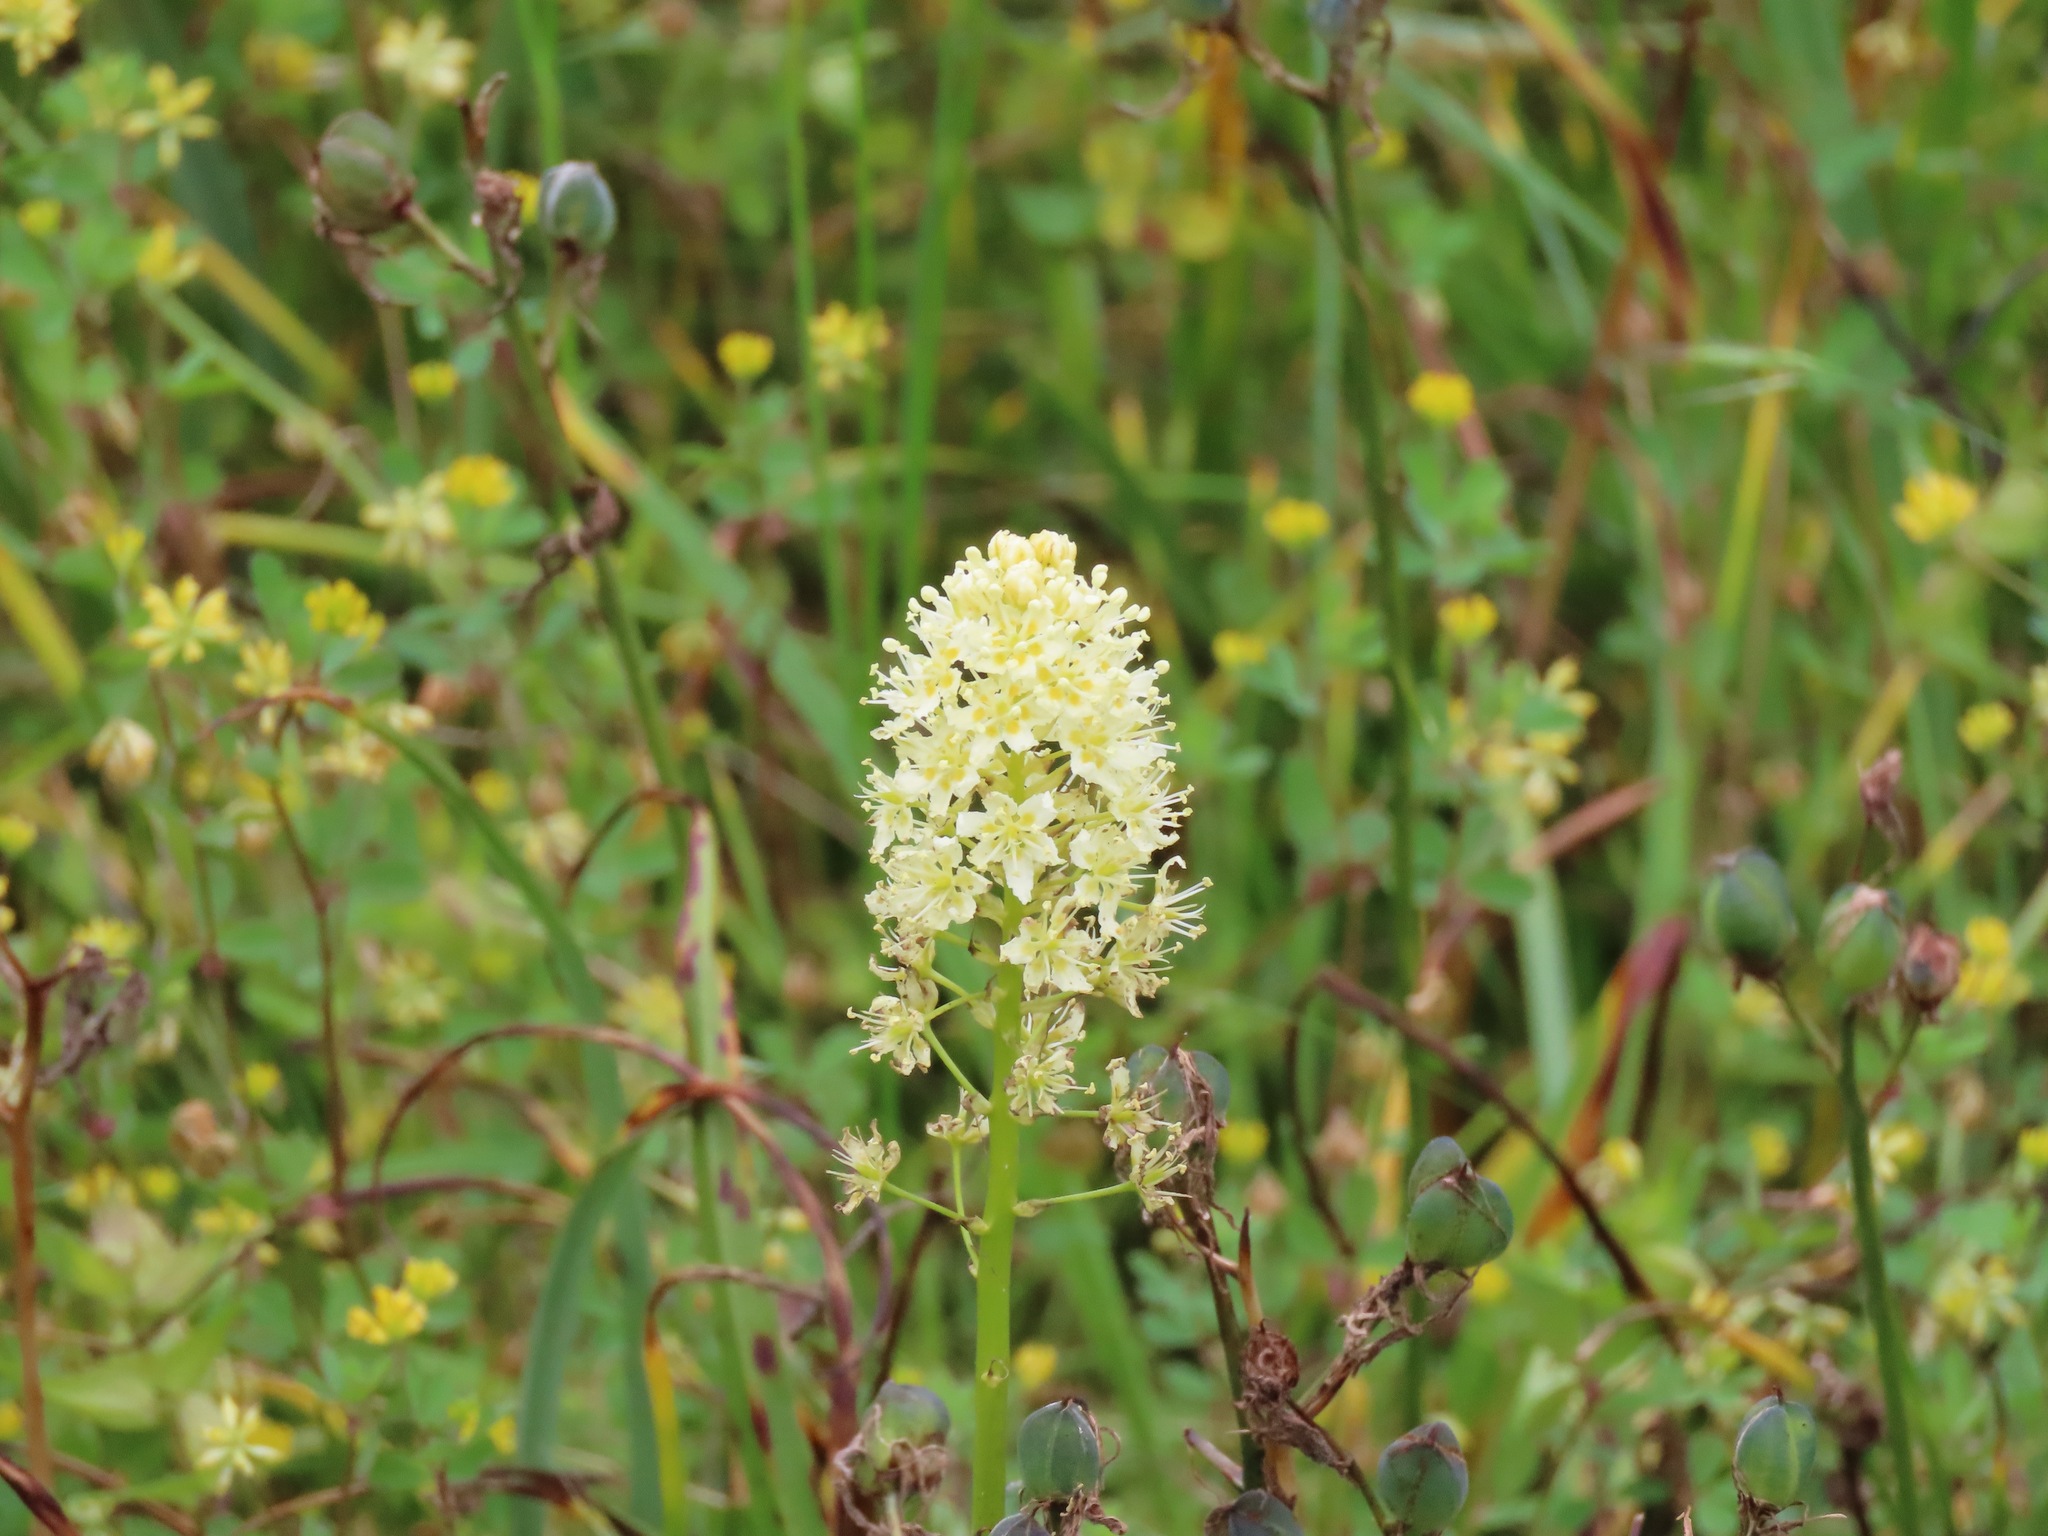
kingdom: Plantae
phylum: Tracheophyta
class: Liliopsida
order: Liliales
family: Melanthiaceae
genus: Toxicoscordion
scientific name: Toxicoscordion venenosum
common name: Meadow death camas
